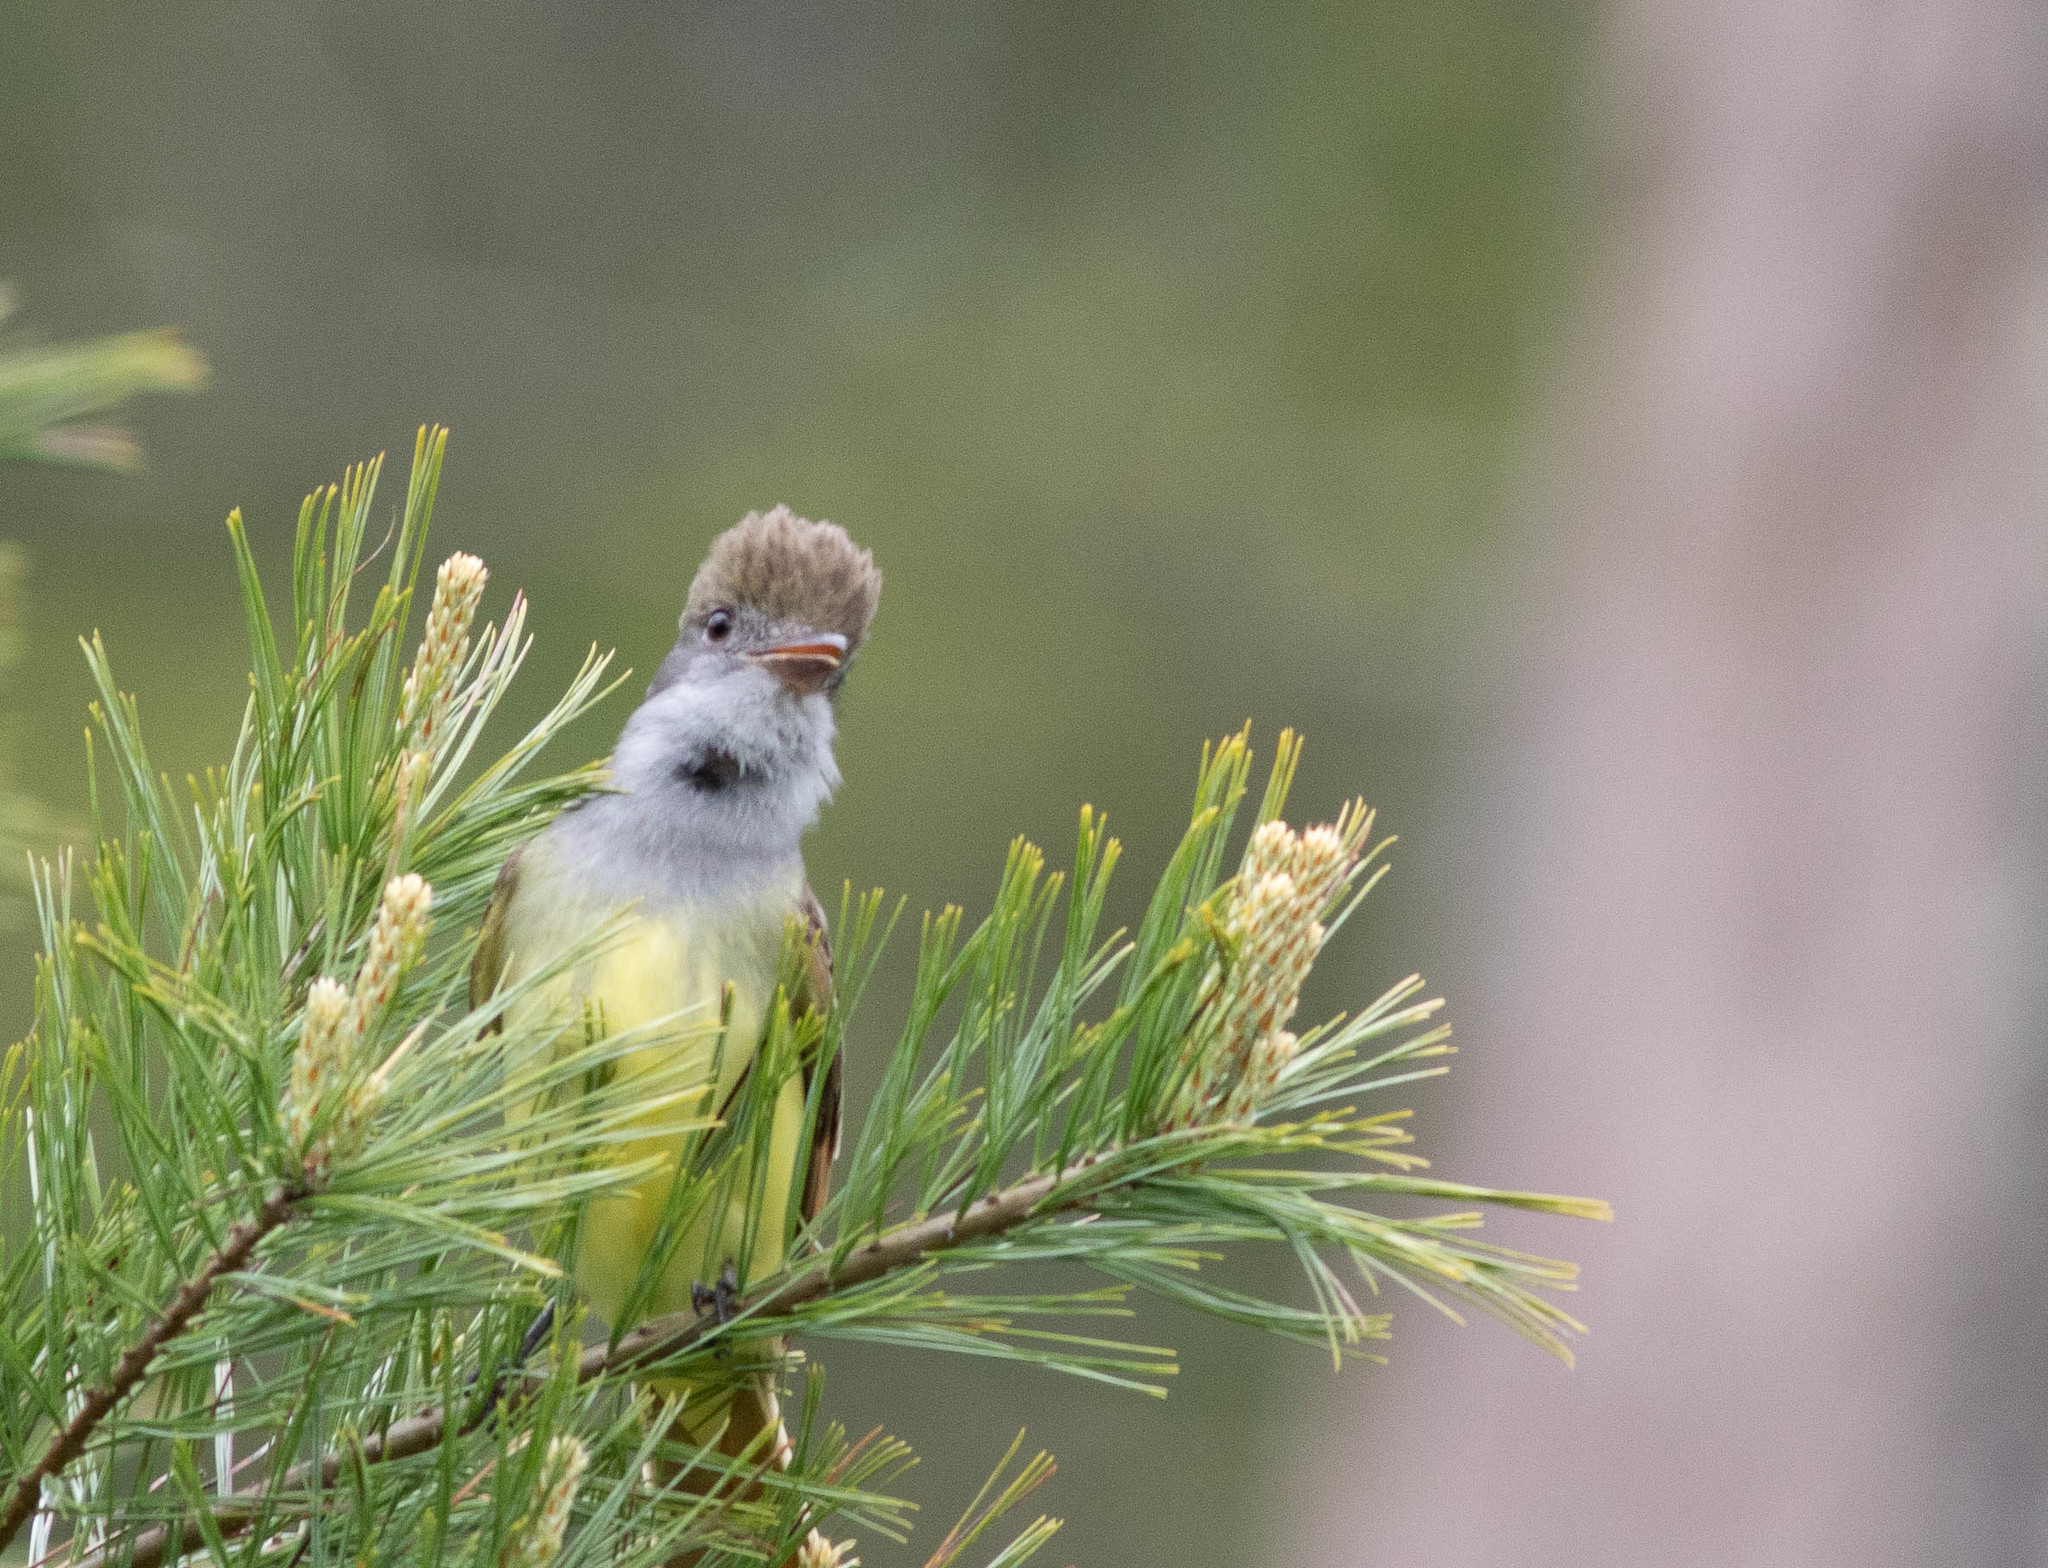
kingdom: Animalia
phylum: Chordata
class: Aves
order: Passeriformes
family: Tyrannidae
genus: Myiarchus
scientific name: Myiarchus crinitus
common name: Great crested flycatcher
